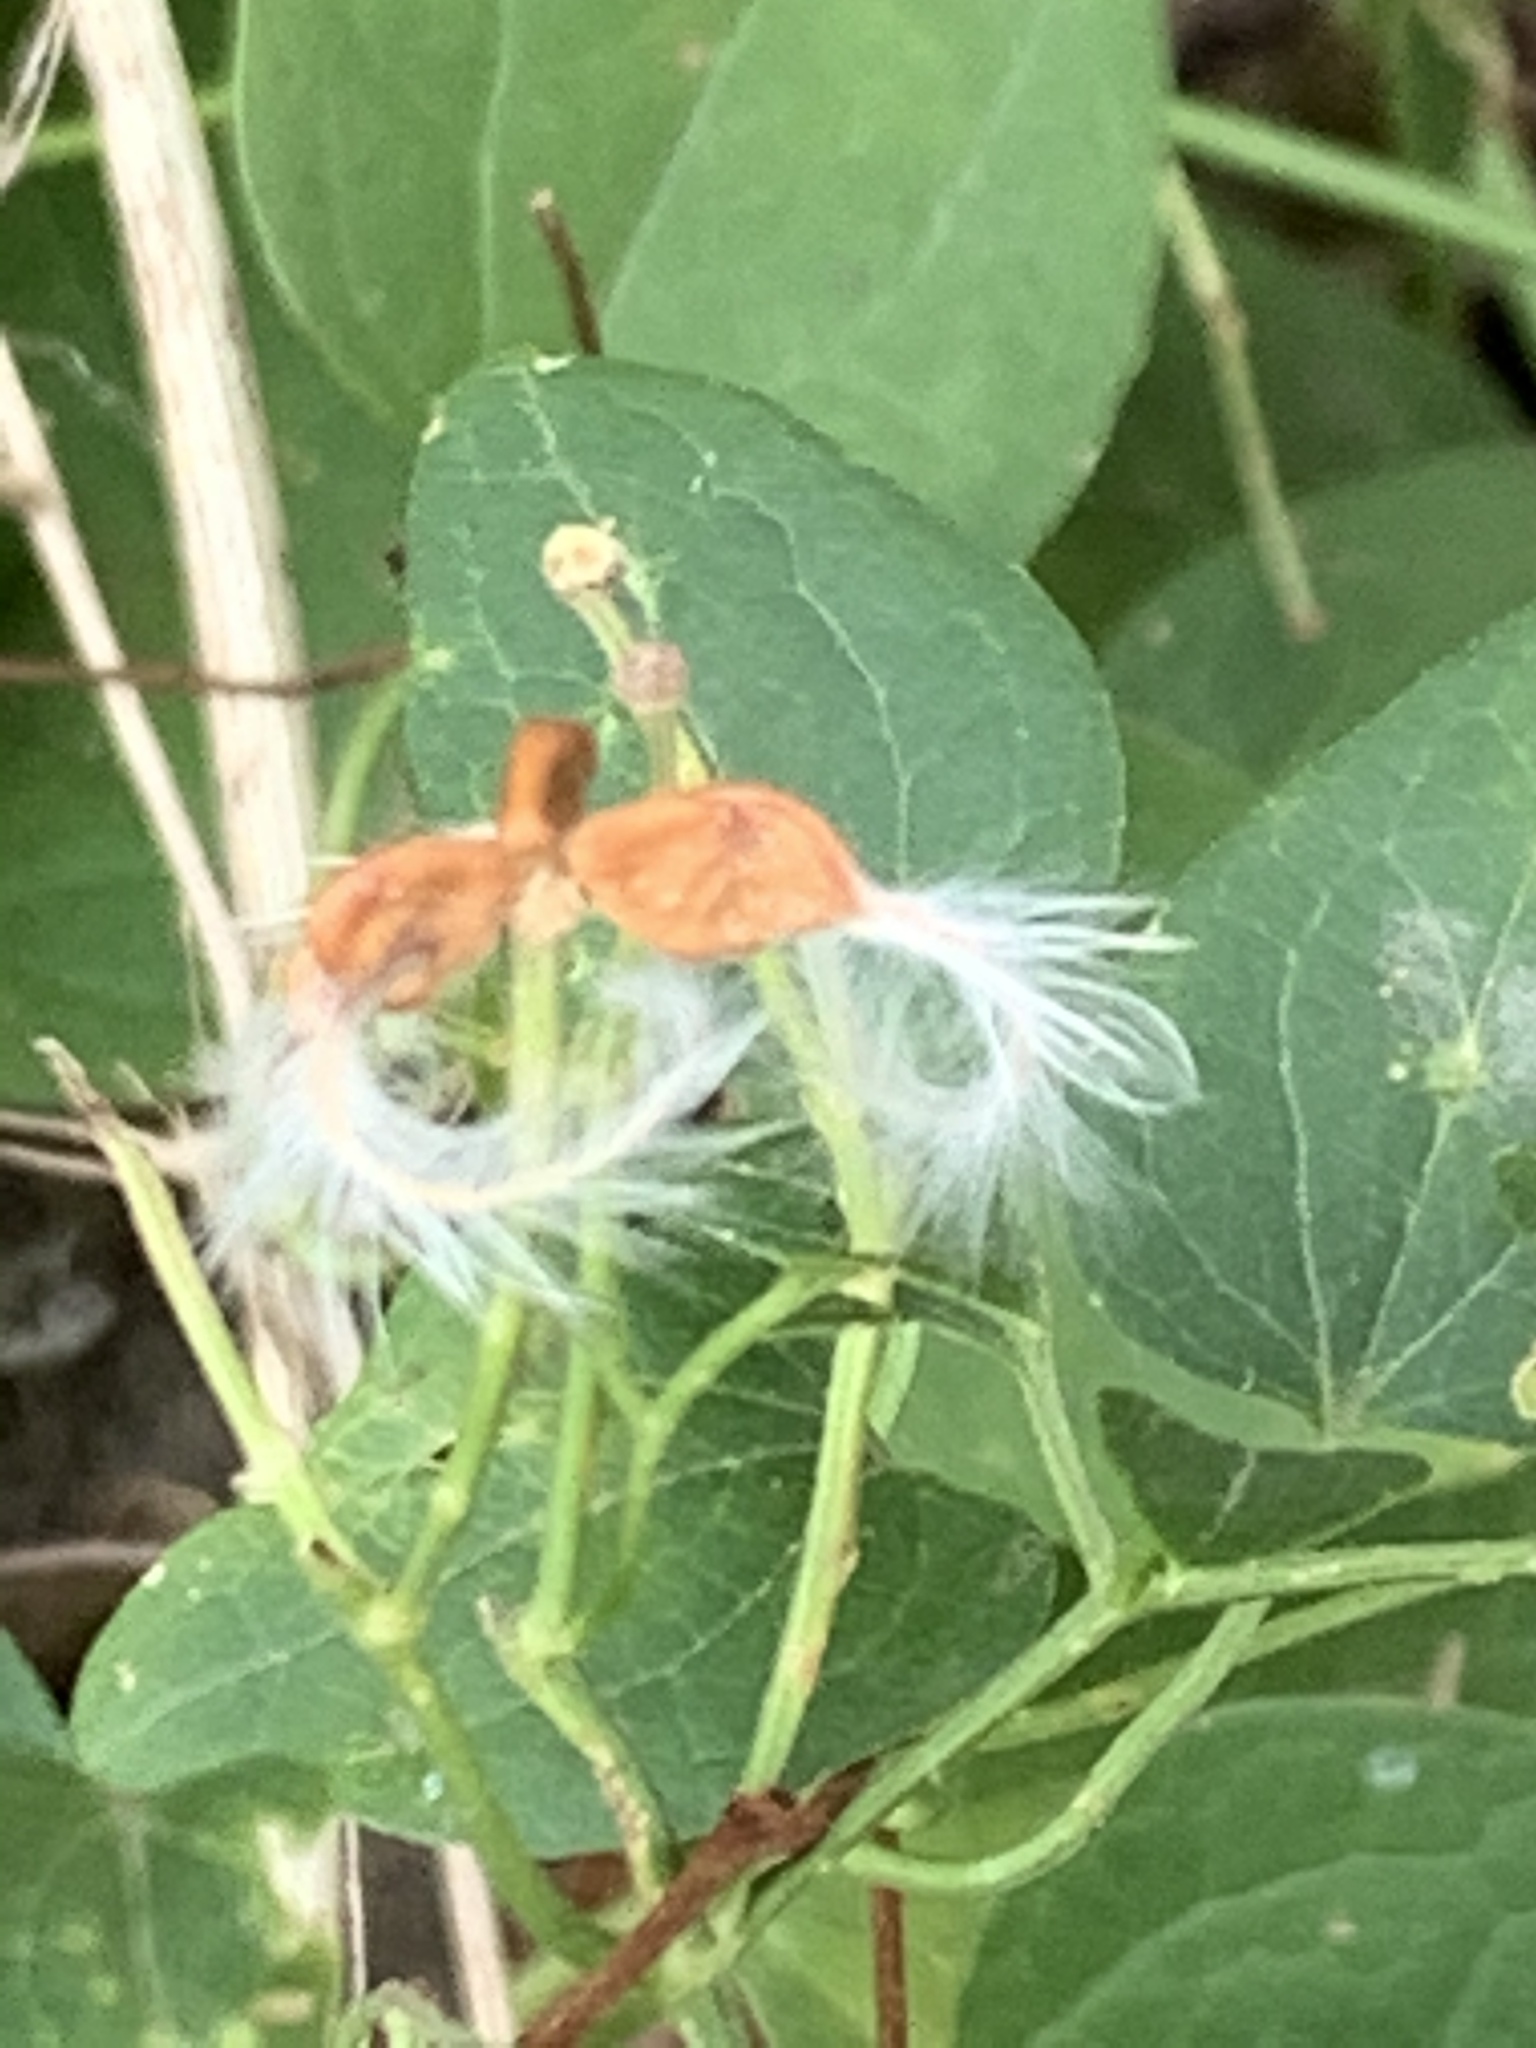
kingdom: Plantae
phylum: Tracheophyta
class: Magnoliopsida
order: Ranunculales
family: Ranunculaceae
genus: Clematis
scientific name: Clematis terniflora
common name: Sweet autumn clematis
